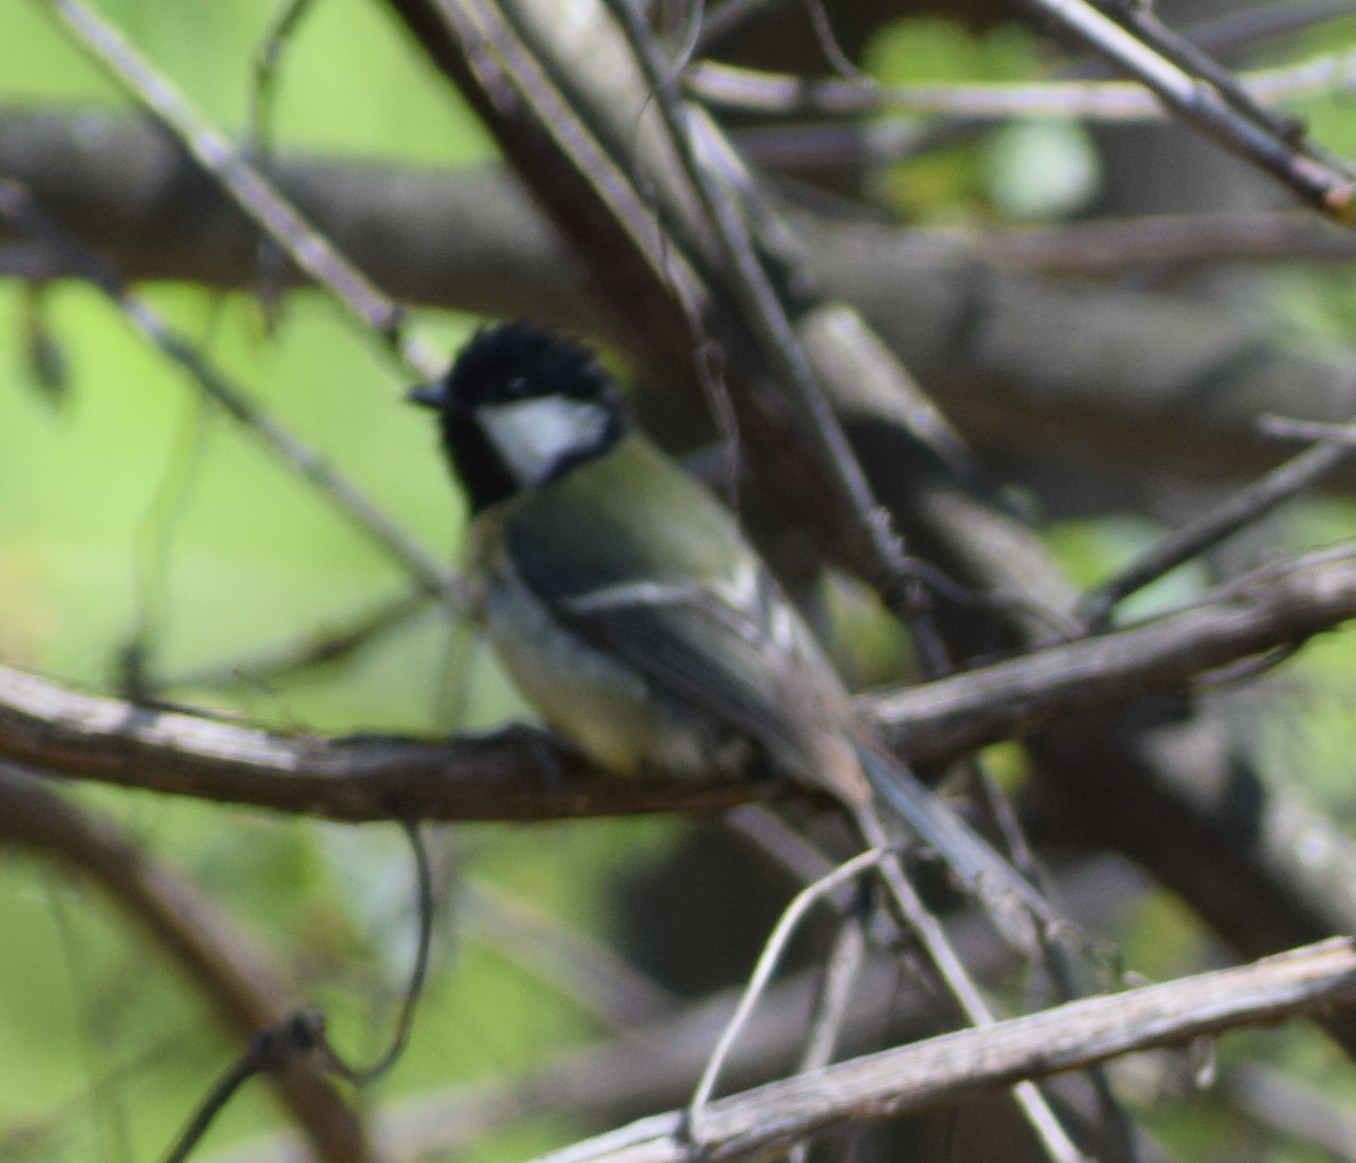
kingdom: Animalia
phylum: Chordata
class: Aves
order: Passeriformes
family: Paridae
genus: Parus
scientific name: Parus major
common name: Great tit
